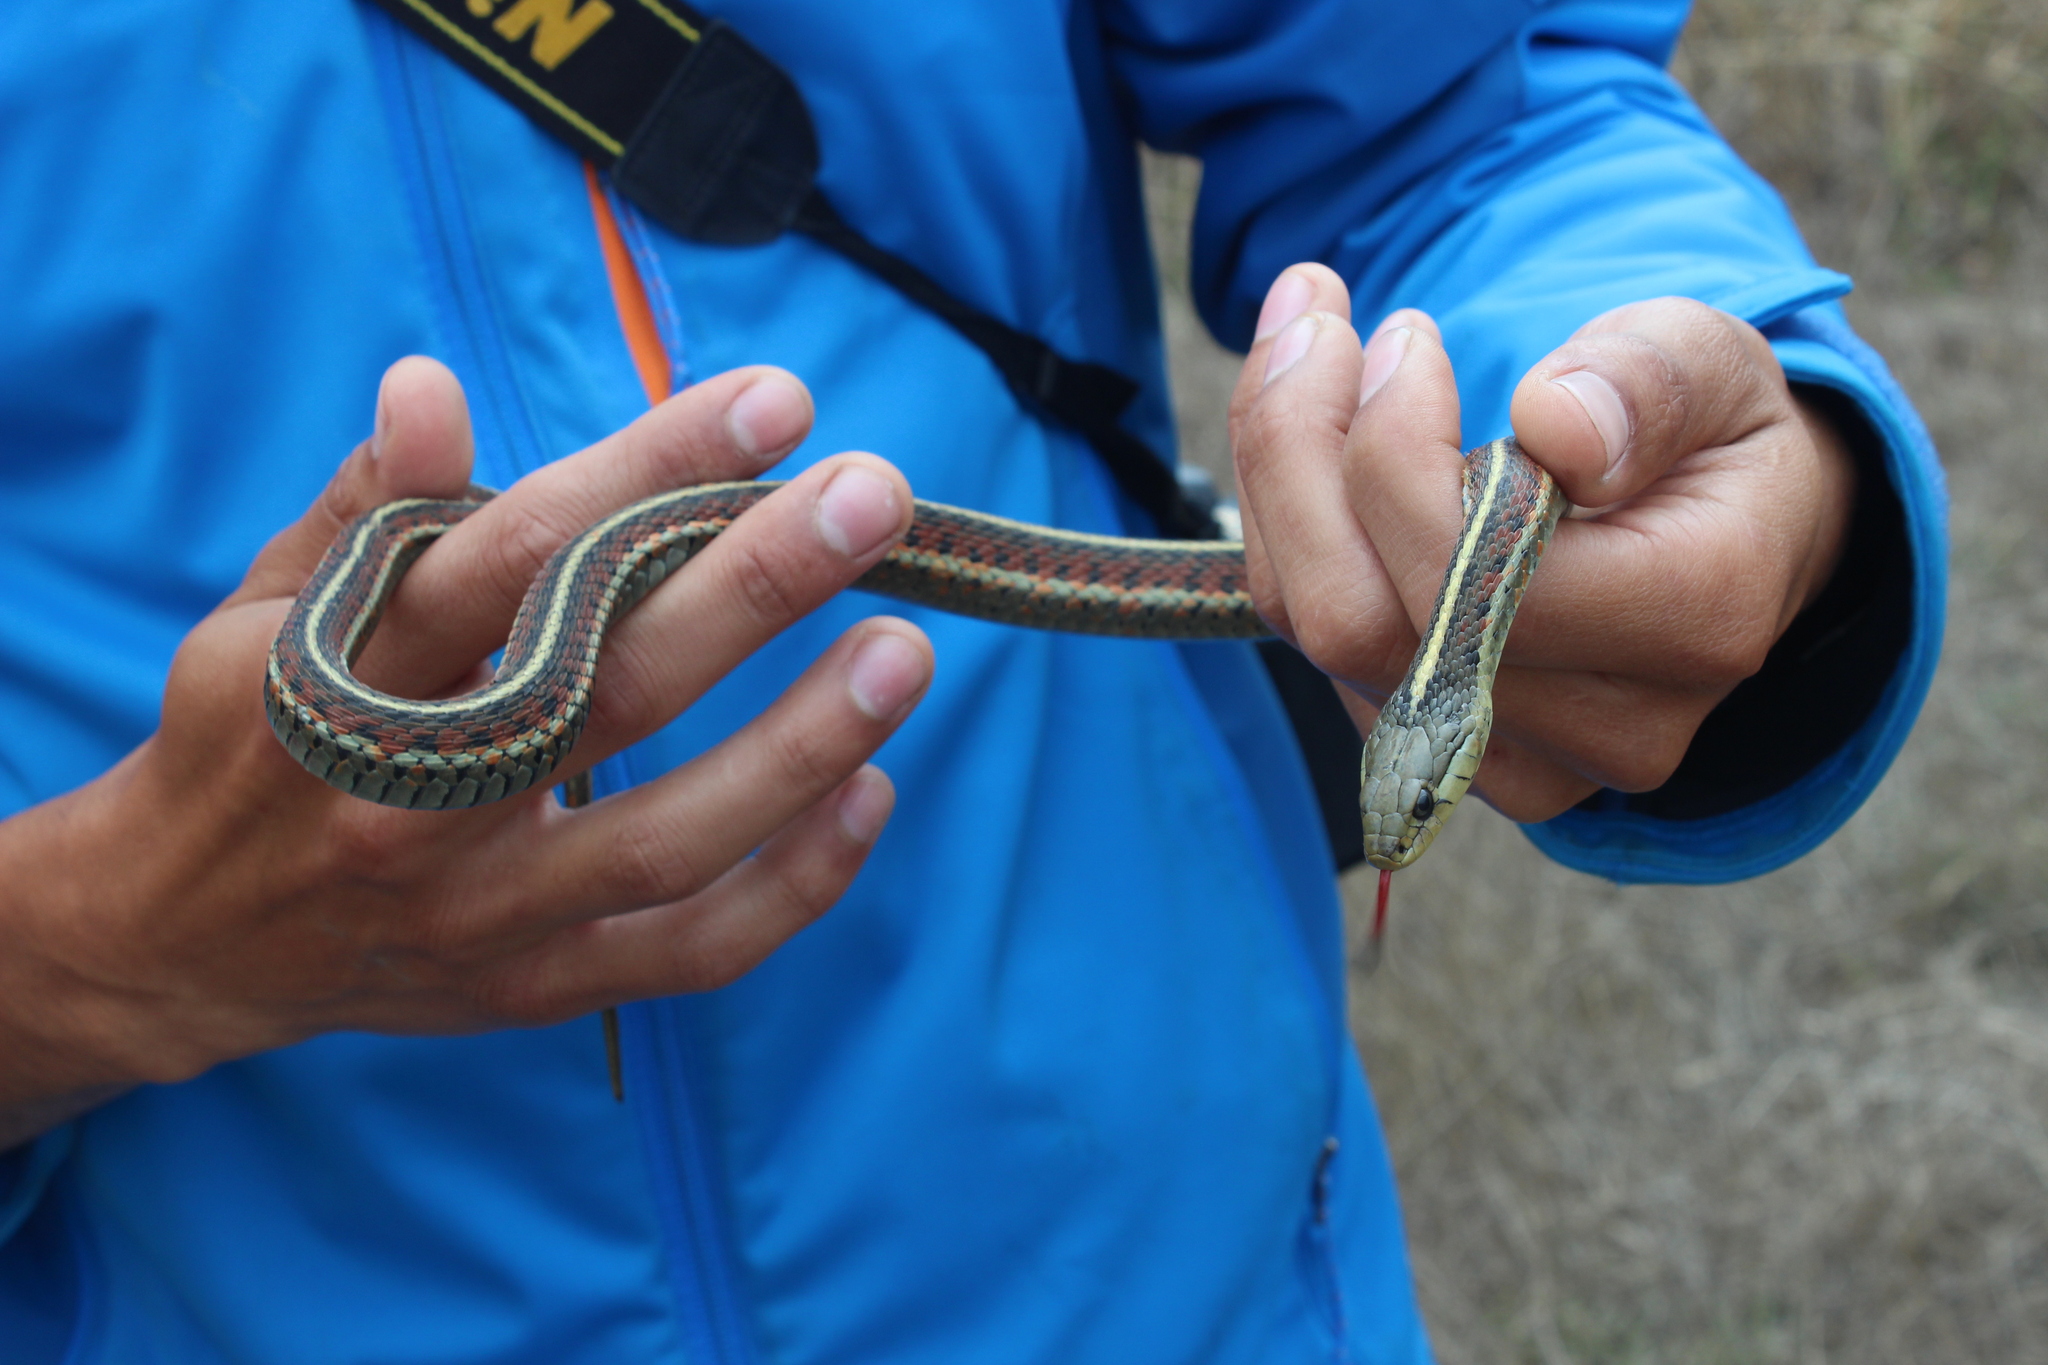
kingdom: Animalia
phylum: Chordata
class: Squamata
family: Colubridae
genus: Thamnophis
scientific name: Thamnophis elegans
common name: Western terrestrial garter snake
